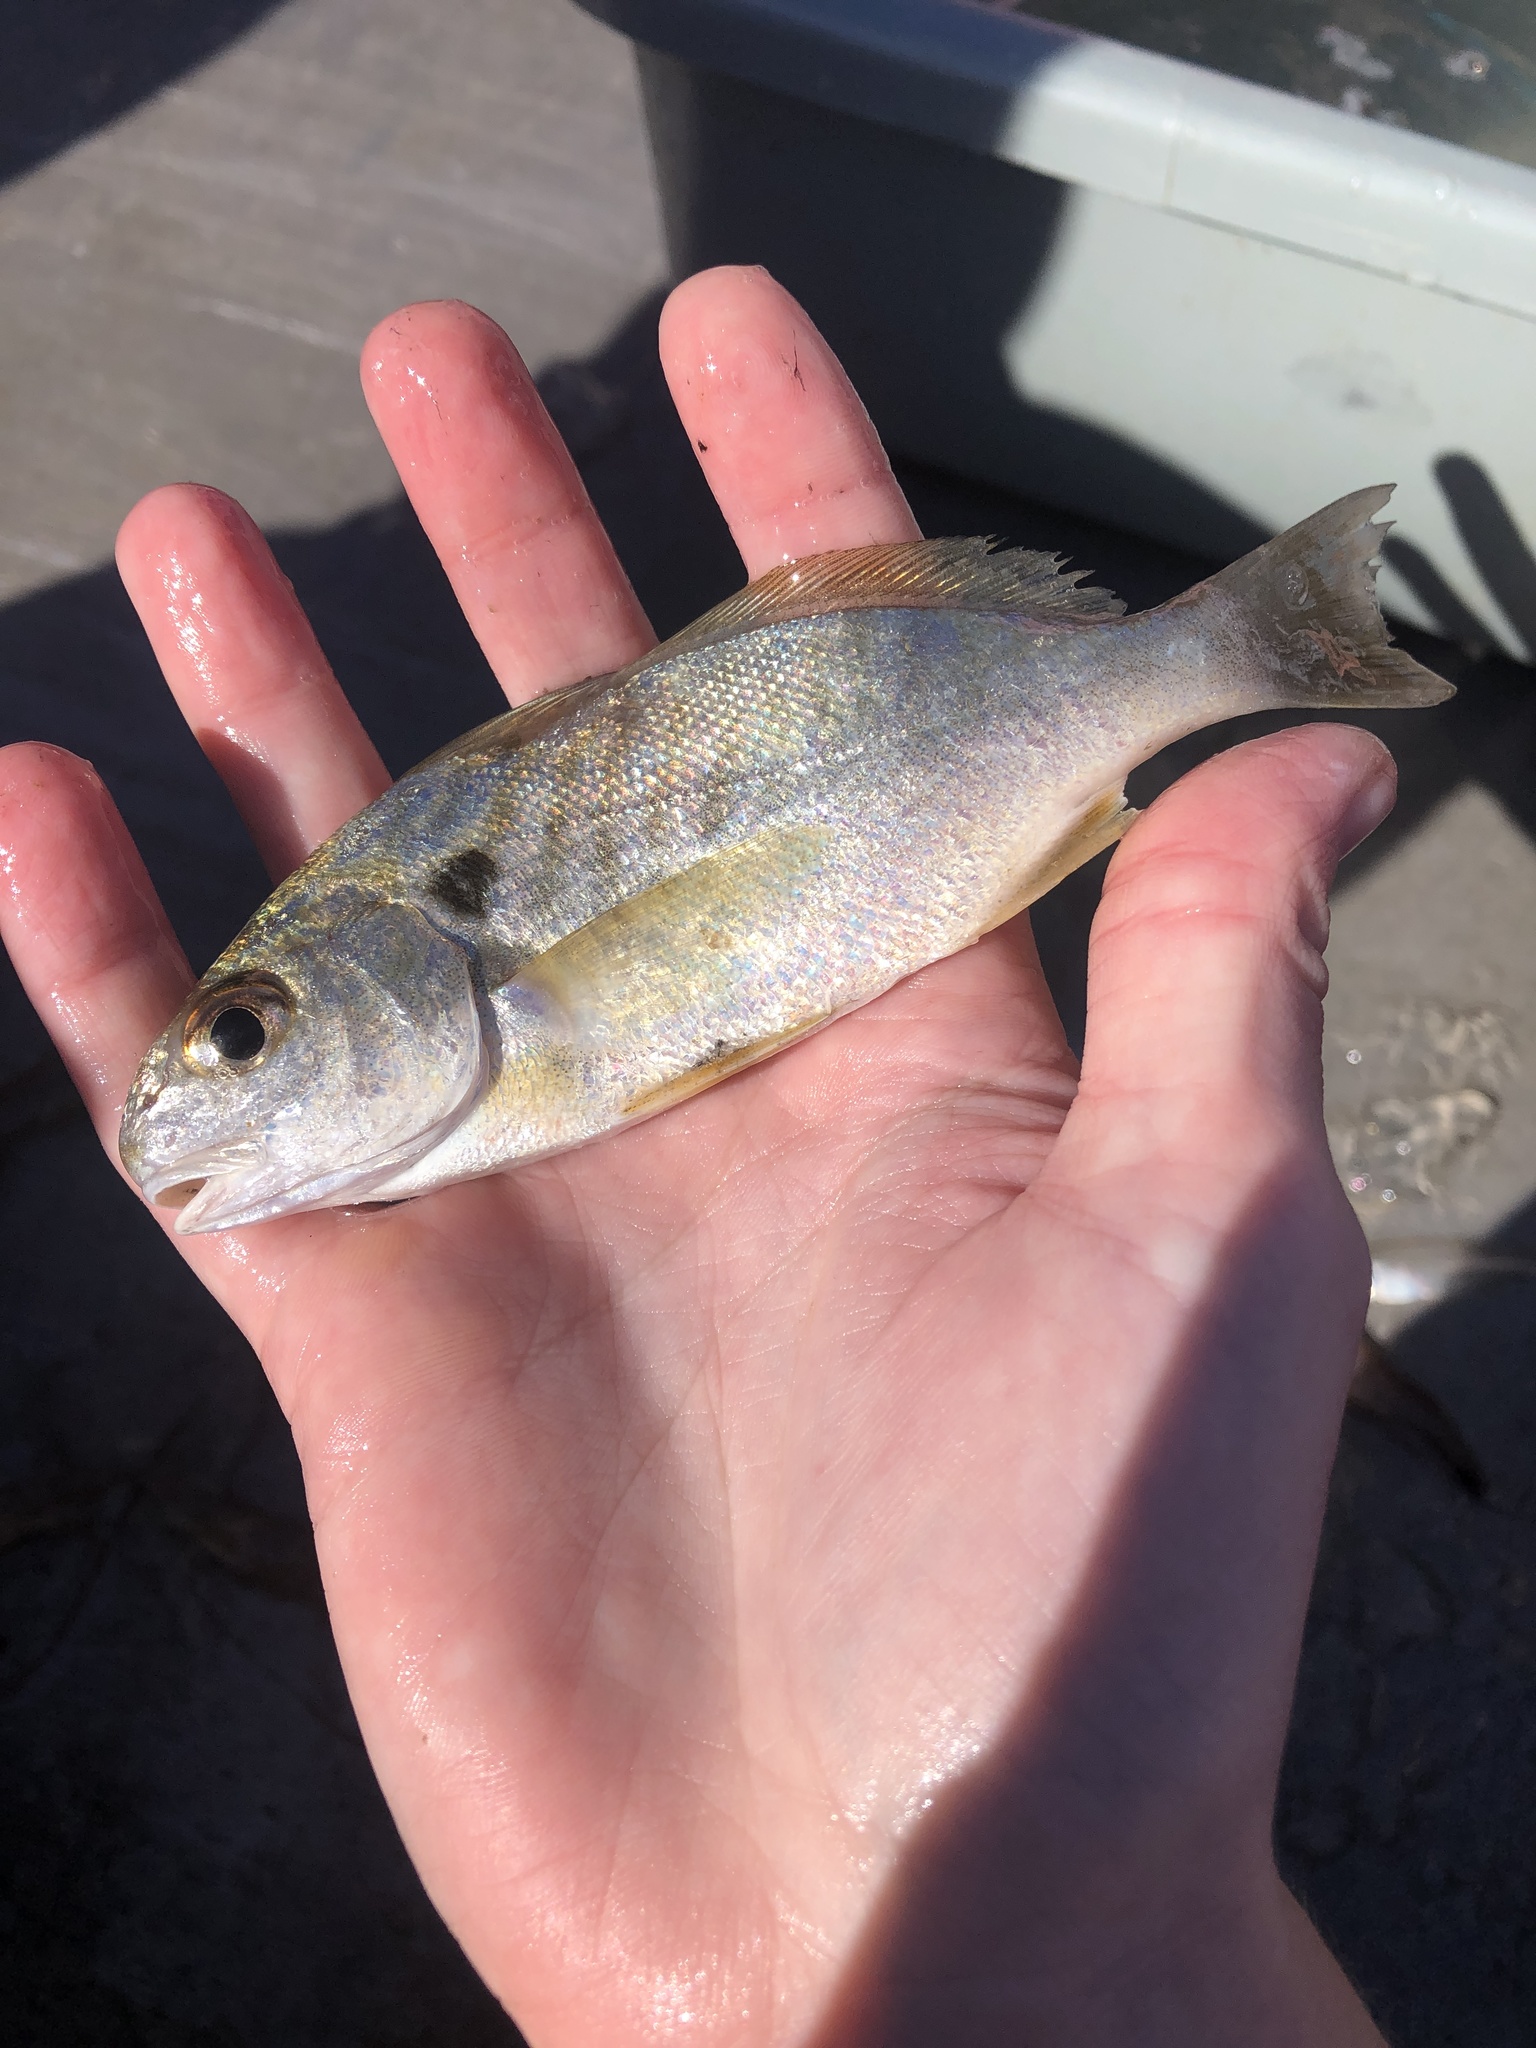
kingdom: Animalia
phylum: Chordata
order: Perciformes
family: Sciaenidae
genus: Leiostomus
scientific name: Leiostomus xanthurus
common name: Spot
